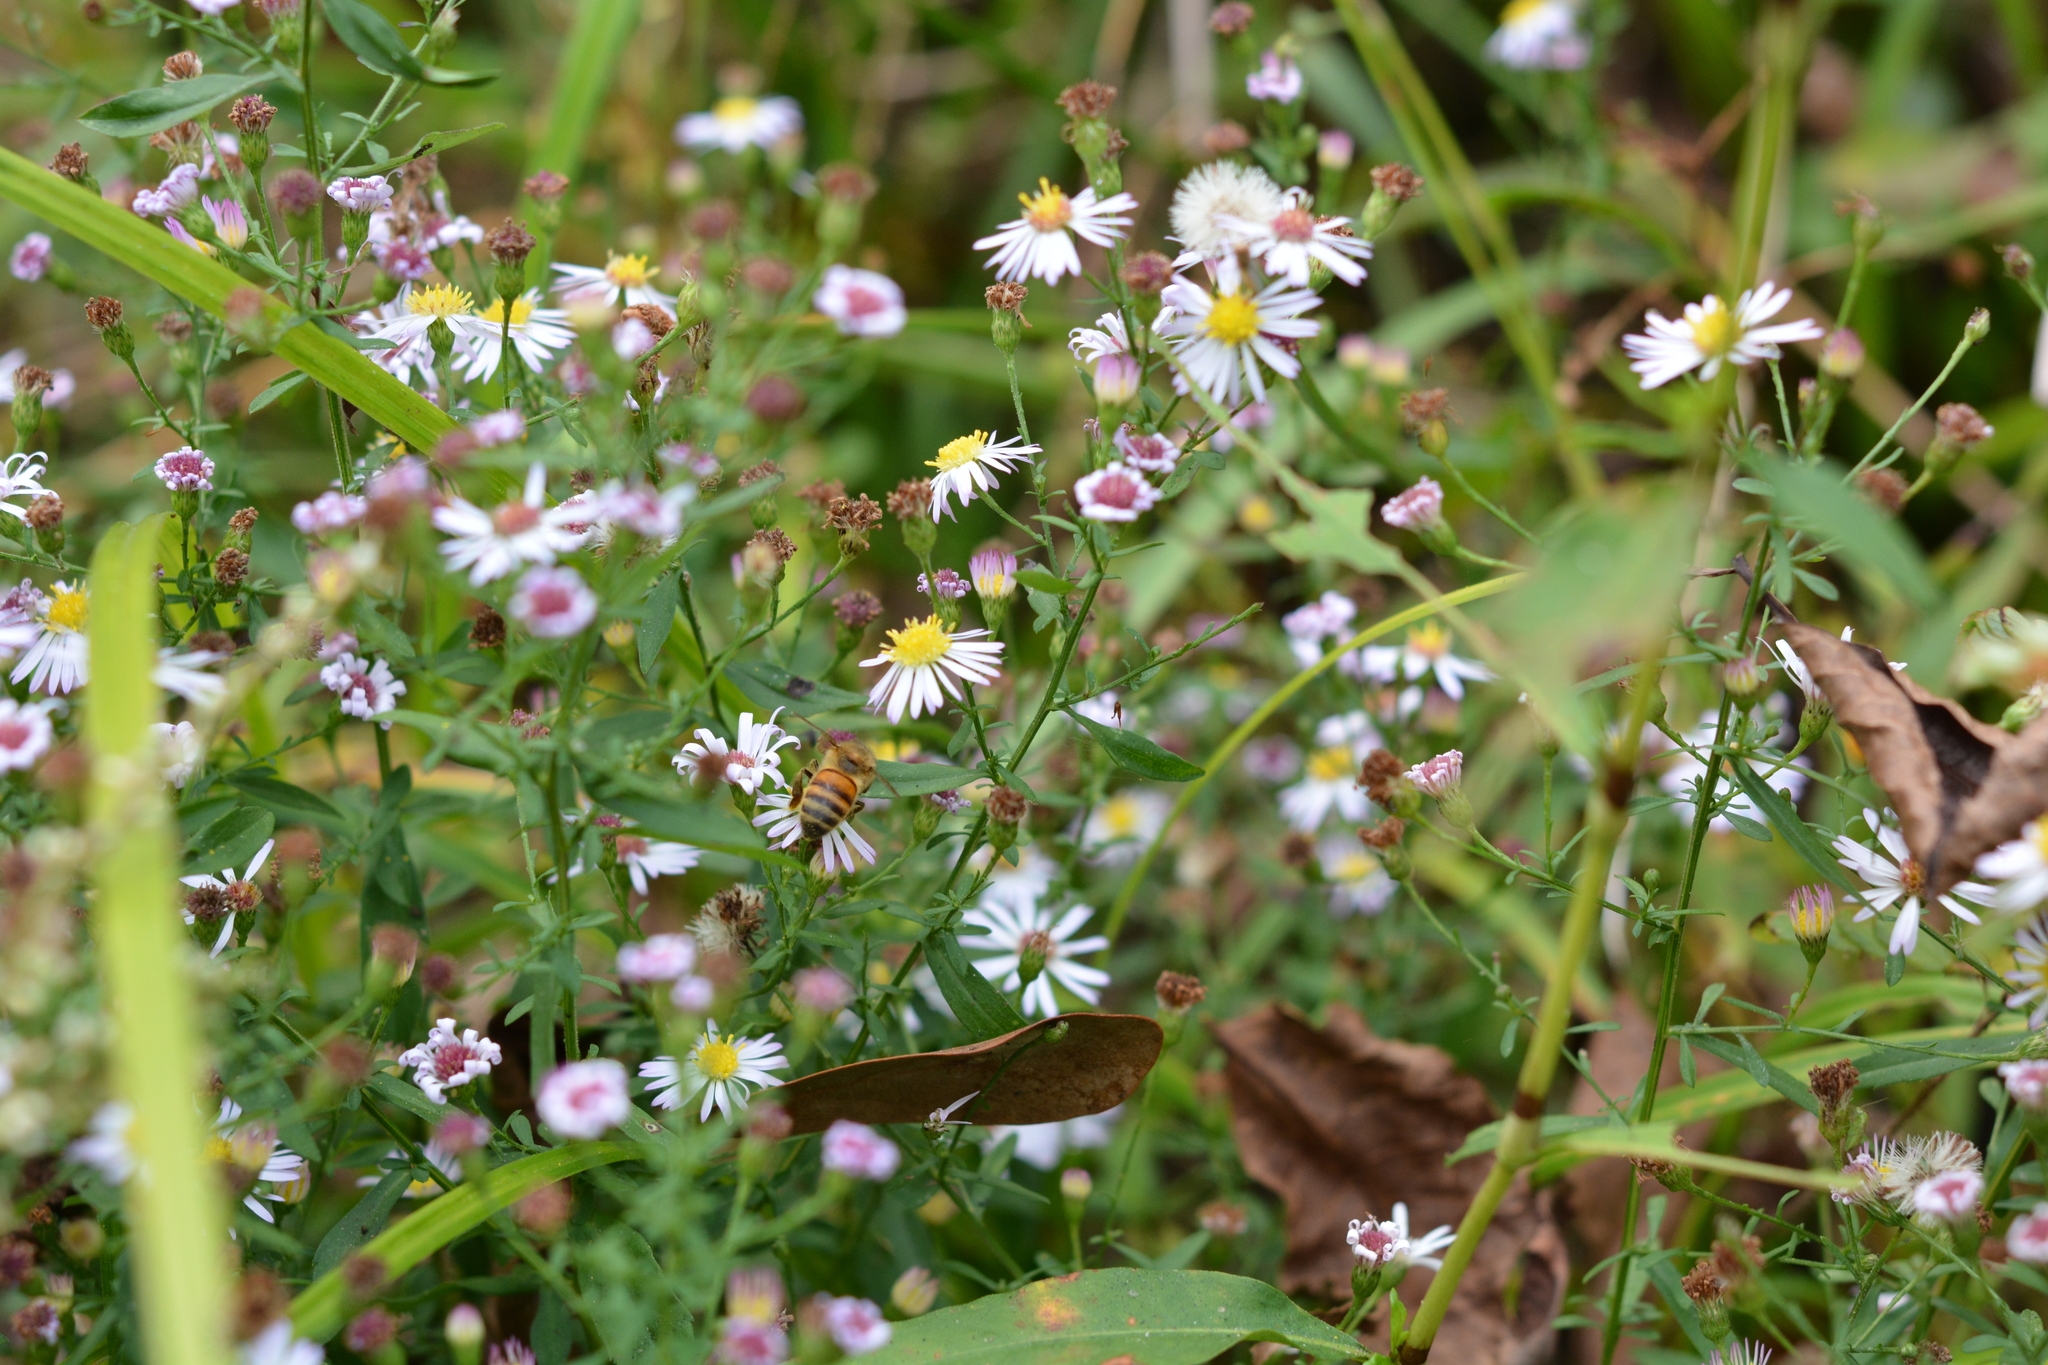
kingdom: Animalia
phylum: Arthropoda
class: Insecta
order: Hymenoptera
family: Apidae
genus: Apis
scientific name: Apis mellifera
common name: Honey bee
